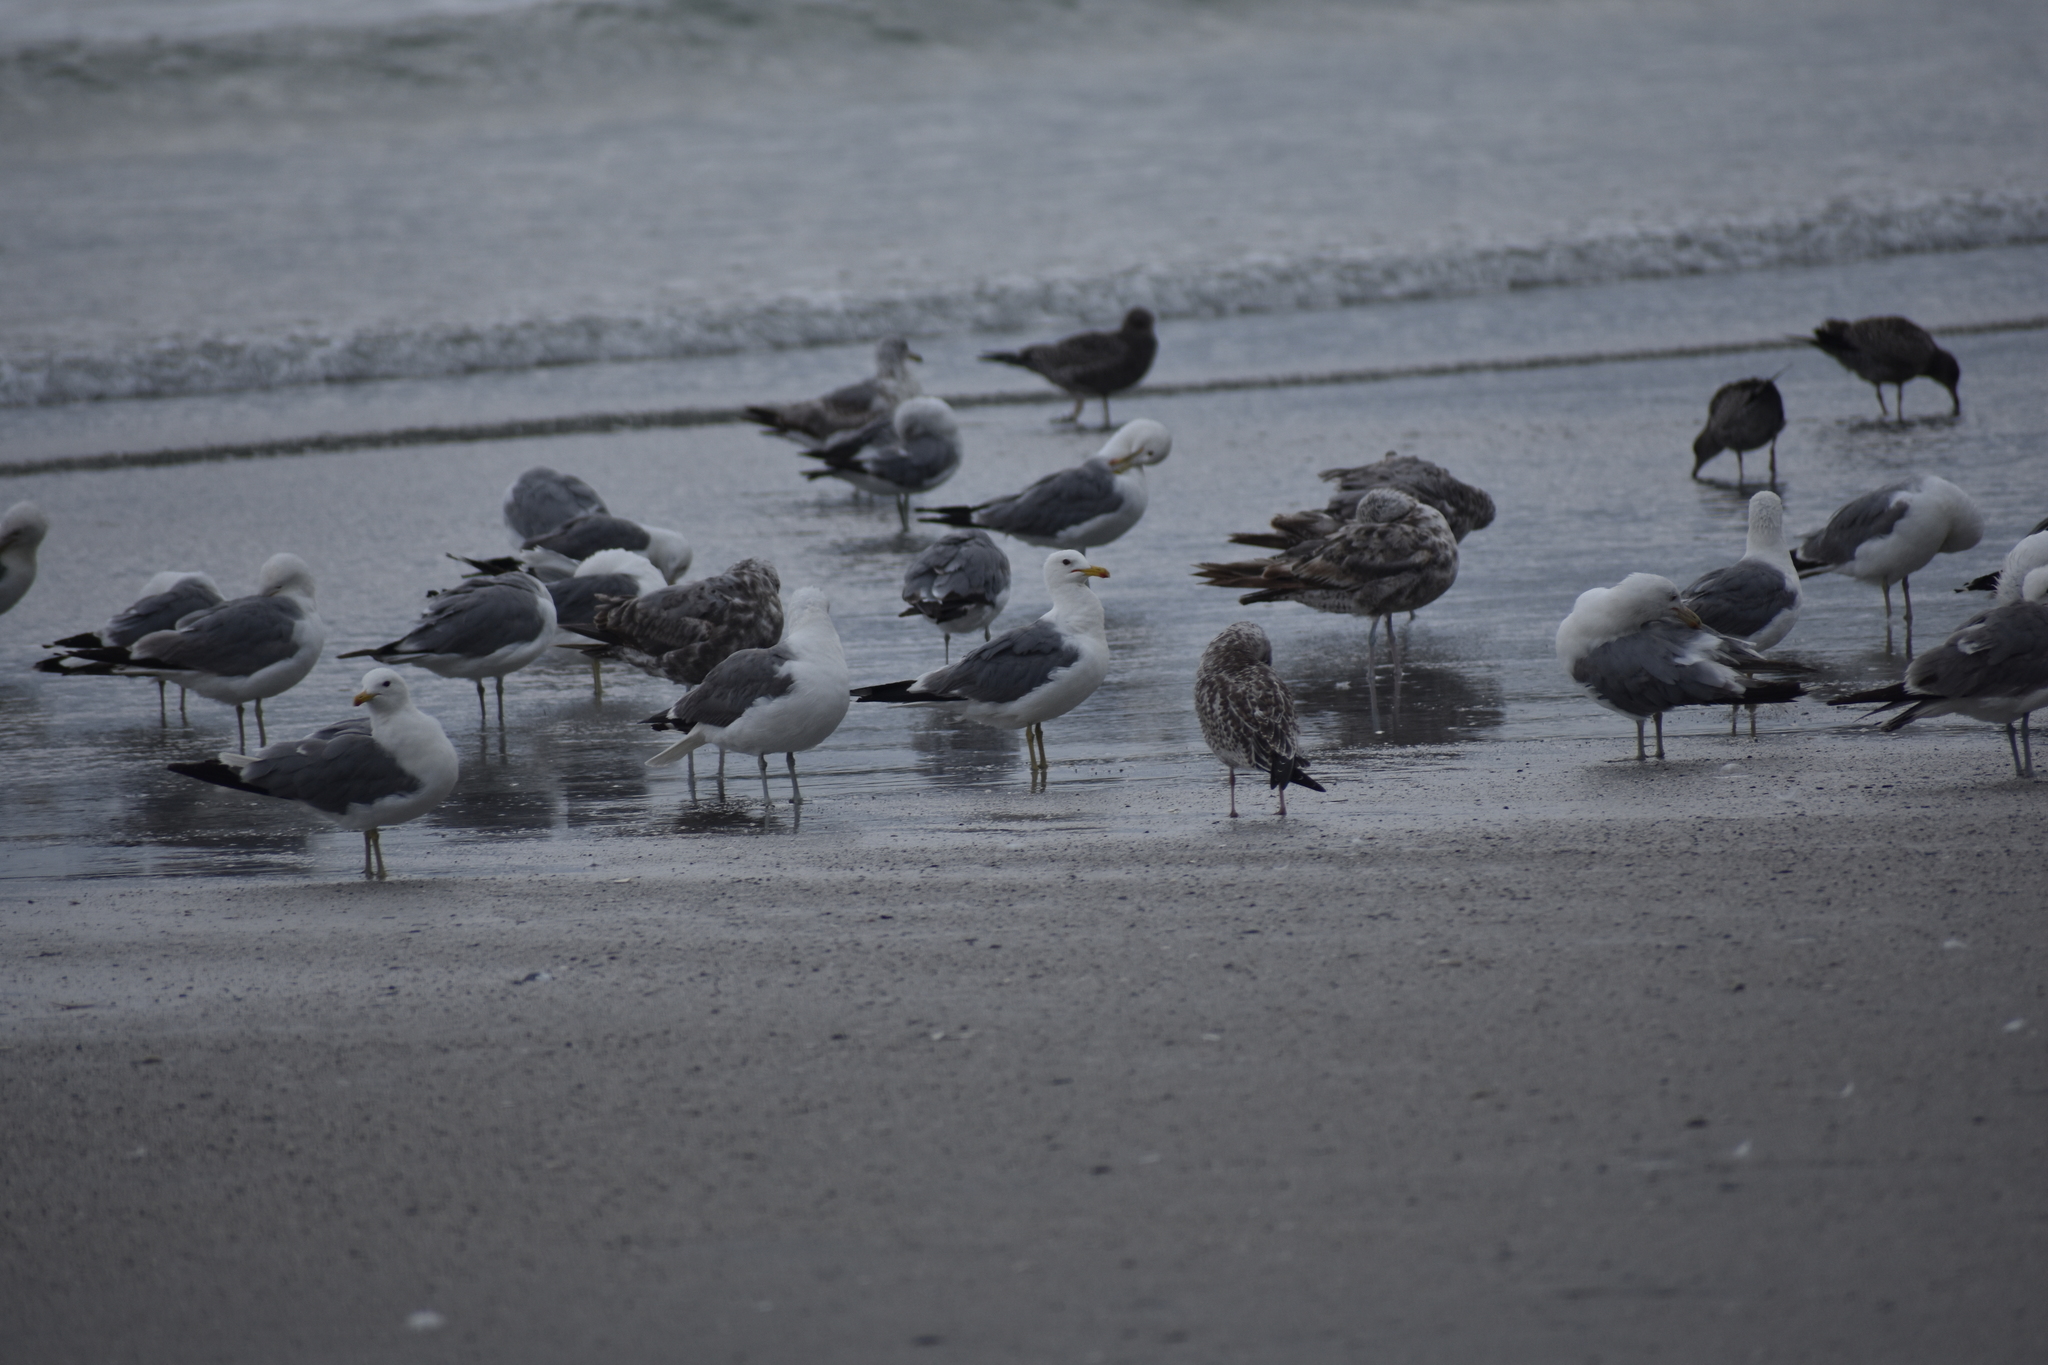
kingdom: Animalia
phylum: Chordata
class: Aves
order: Charadriiformes
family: Laridae
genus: Larus
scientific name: Larus californicus
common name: California gull
